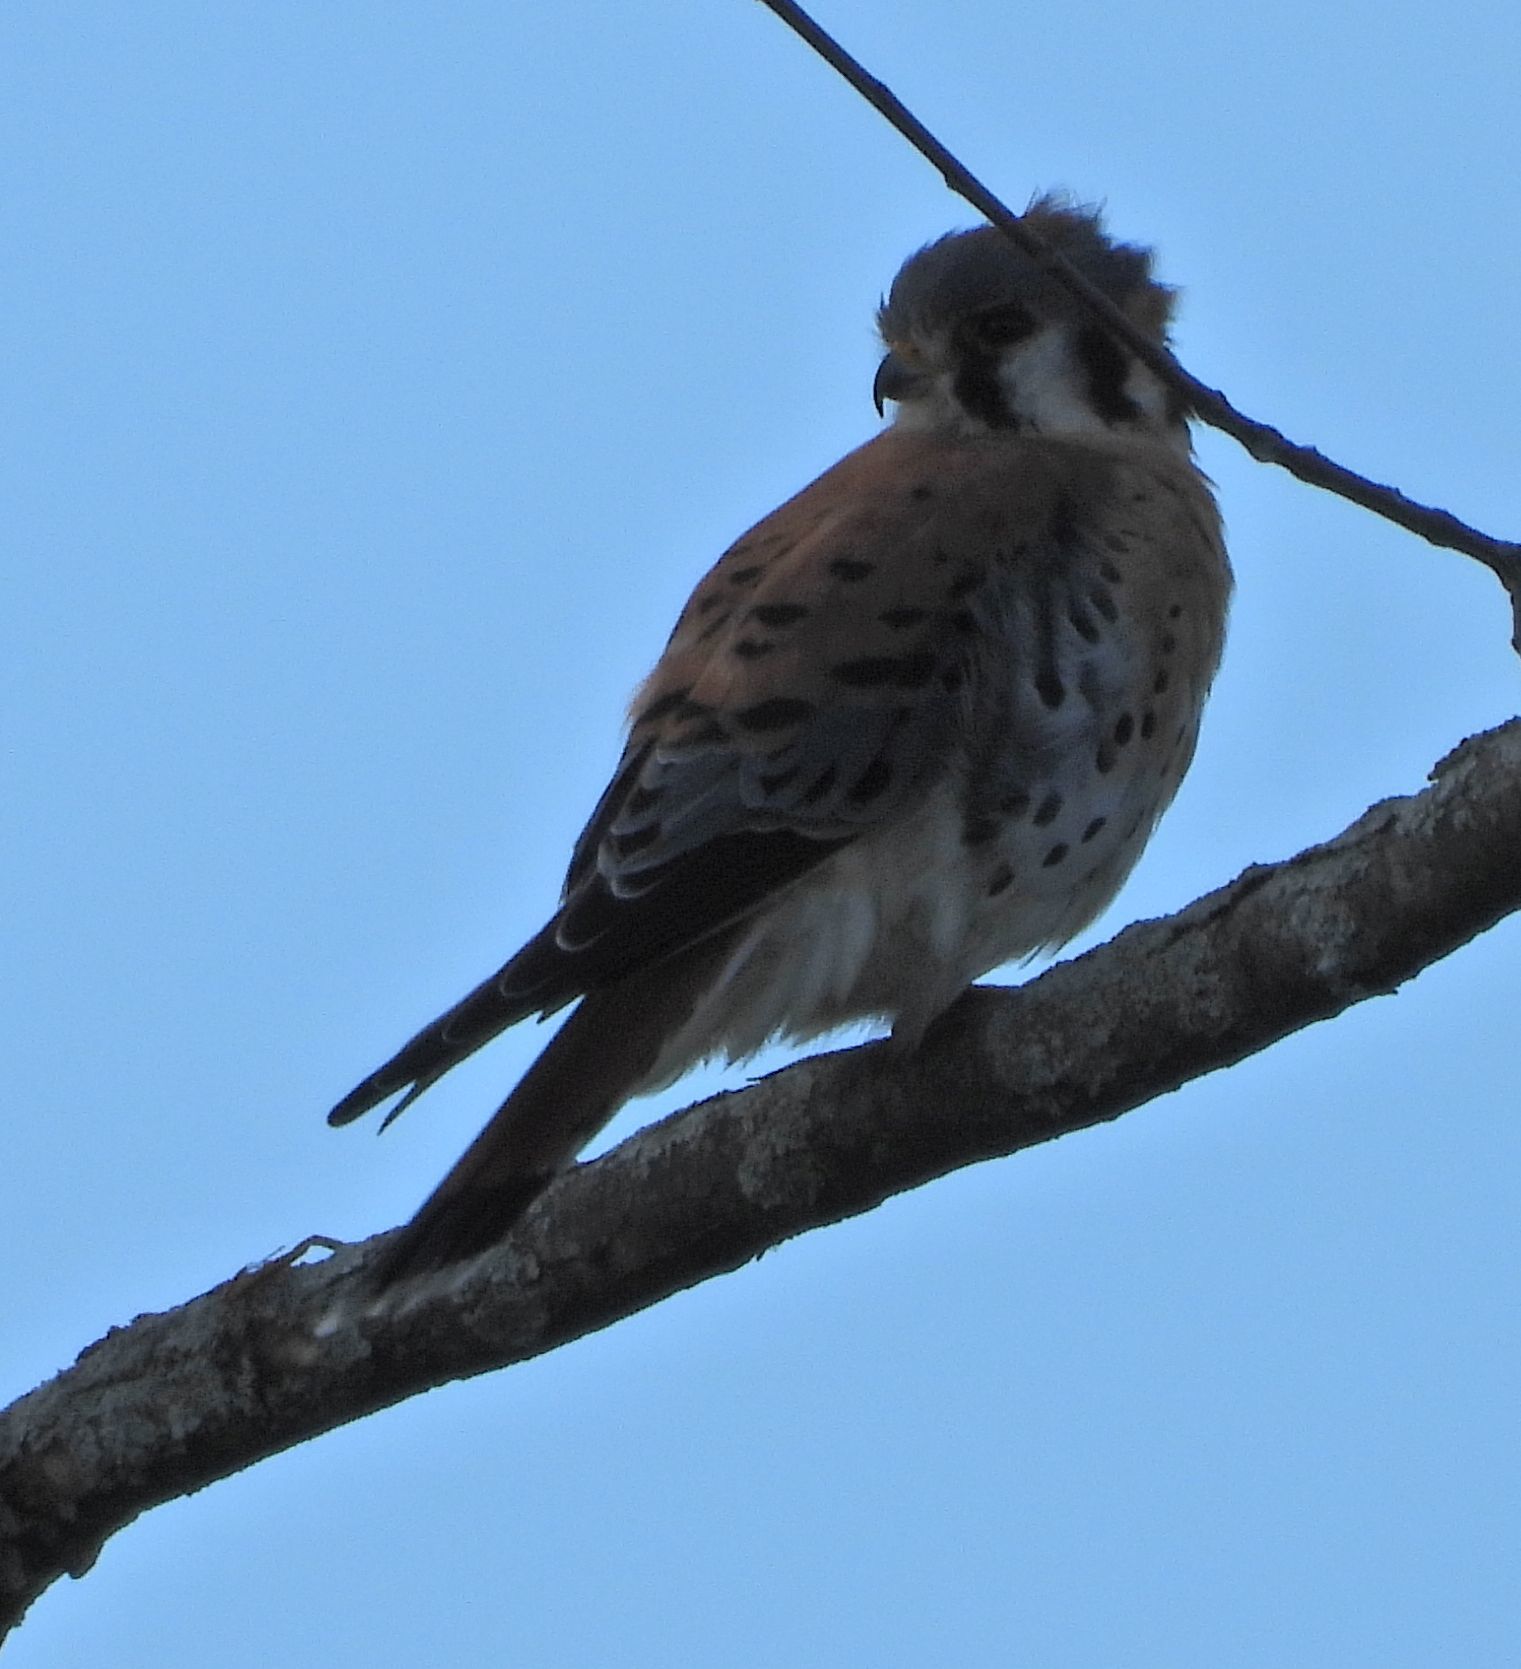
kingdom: Animalia
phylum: Chordata
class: Aves
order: Falconiformes
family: Falconidae
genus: Falco
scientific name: Falco sparverius
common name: American kestrel
